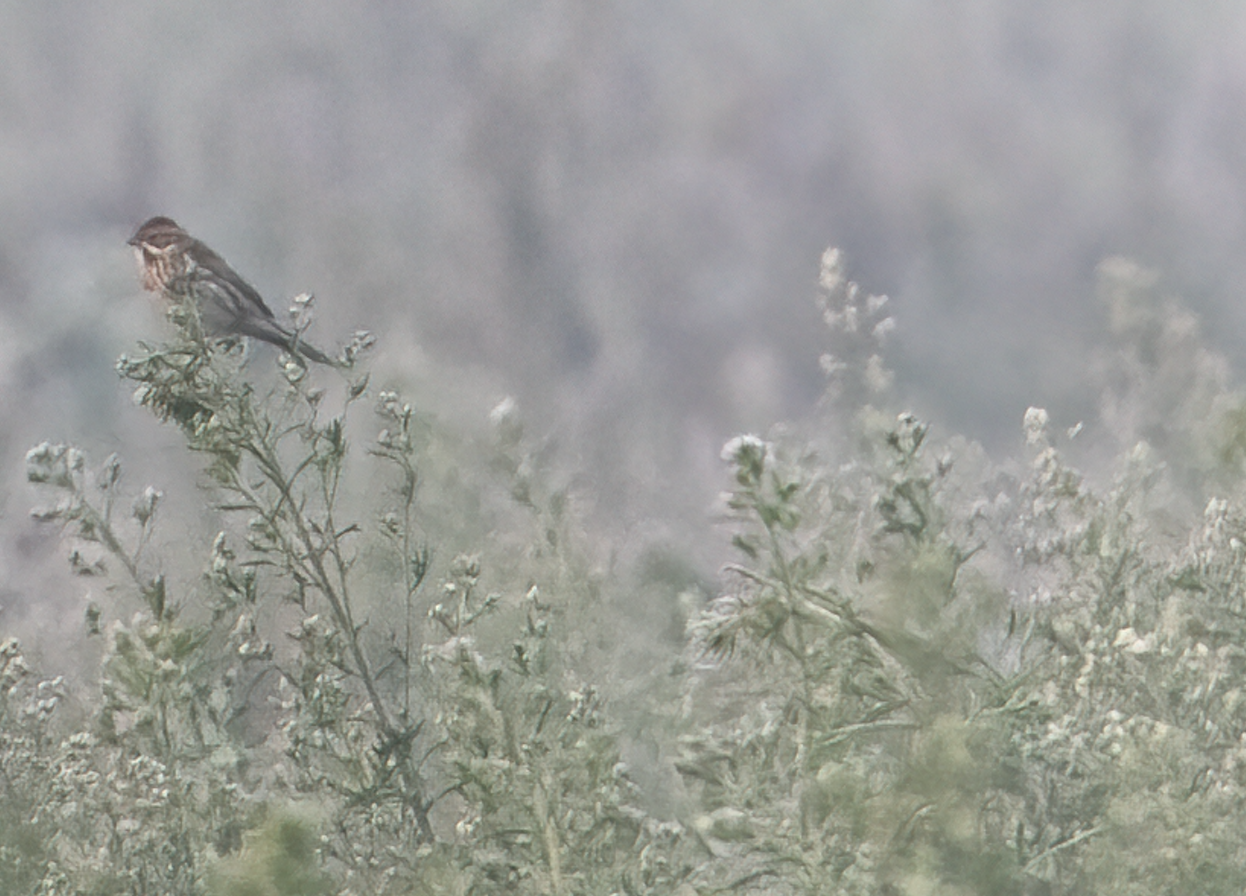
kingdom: Animalia
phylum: Chordata
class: Aves
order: Passeriformes
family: Emberizidae
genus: Emberiza
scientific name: Emberiza schoeniclus
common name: Reed bunting
